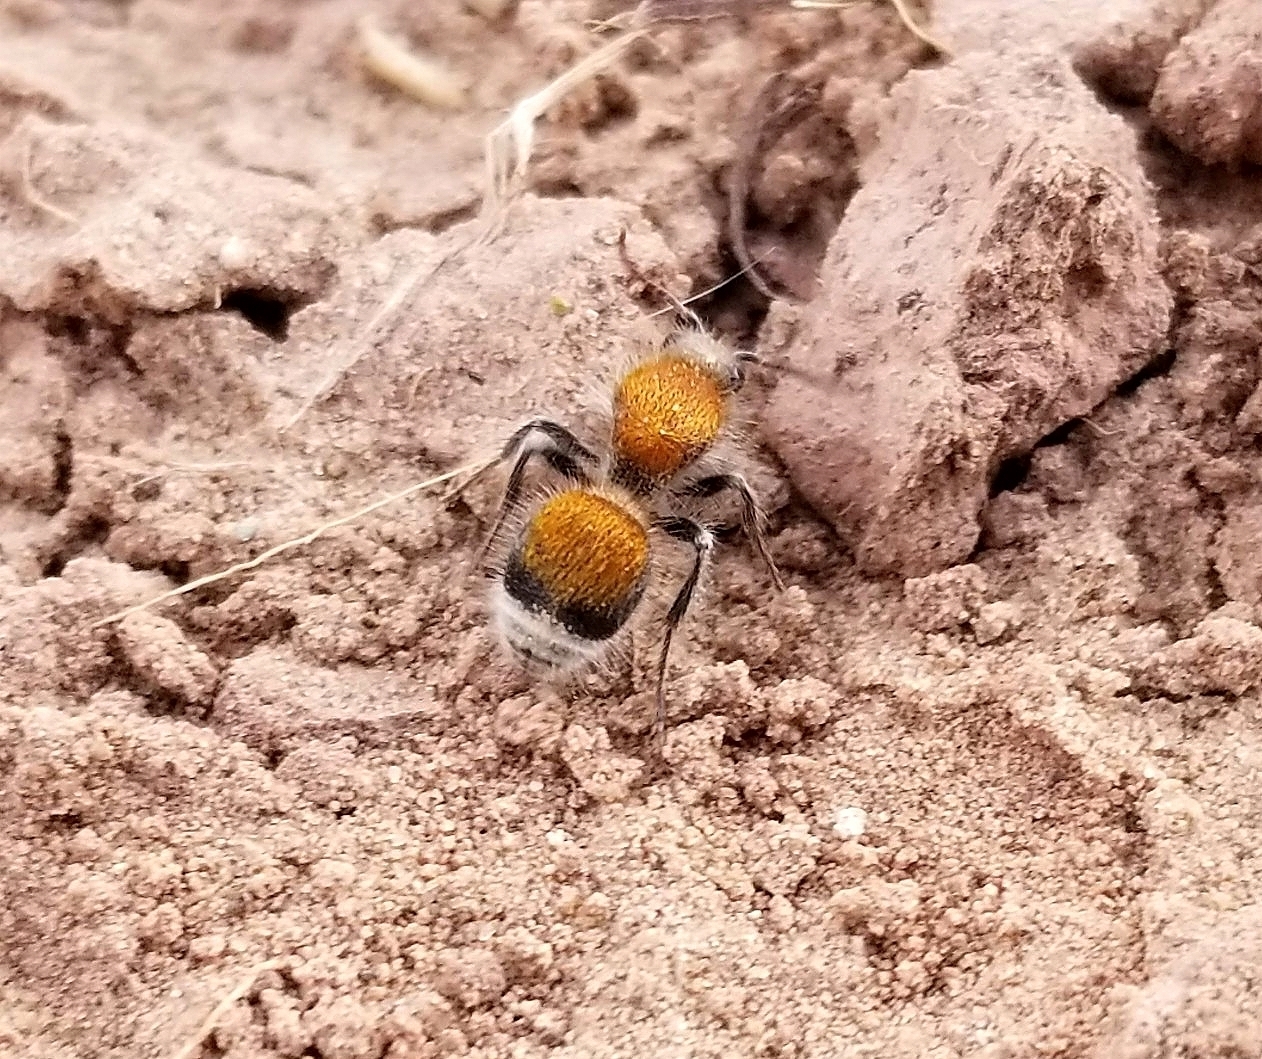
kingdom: Animalia
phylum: Arthropoda
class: Insecta
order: Hymenoptera
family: Mutillidae
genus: Sphaeropthalma
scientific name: Sphaeropthalma
